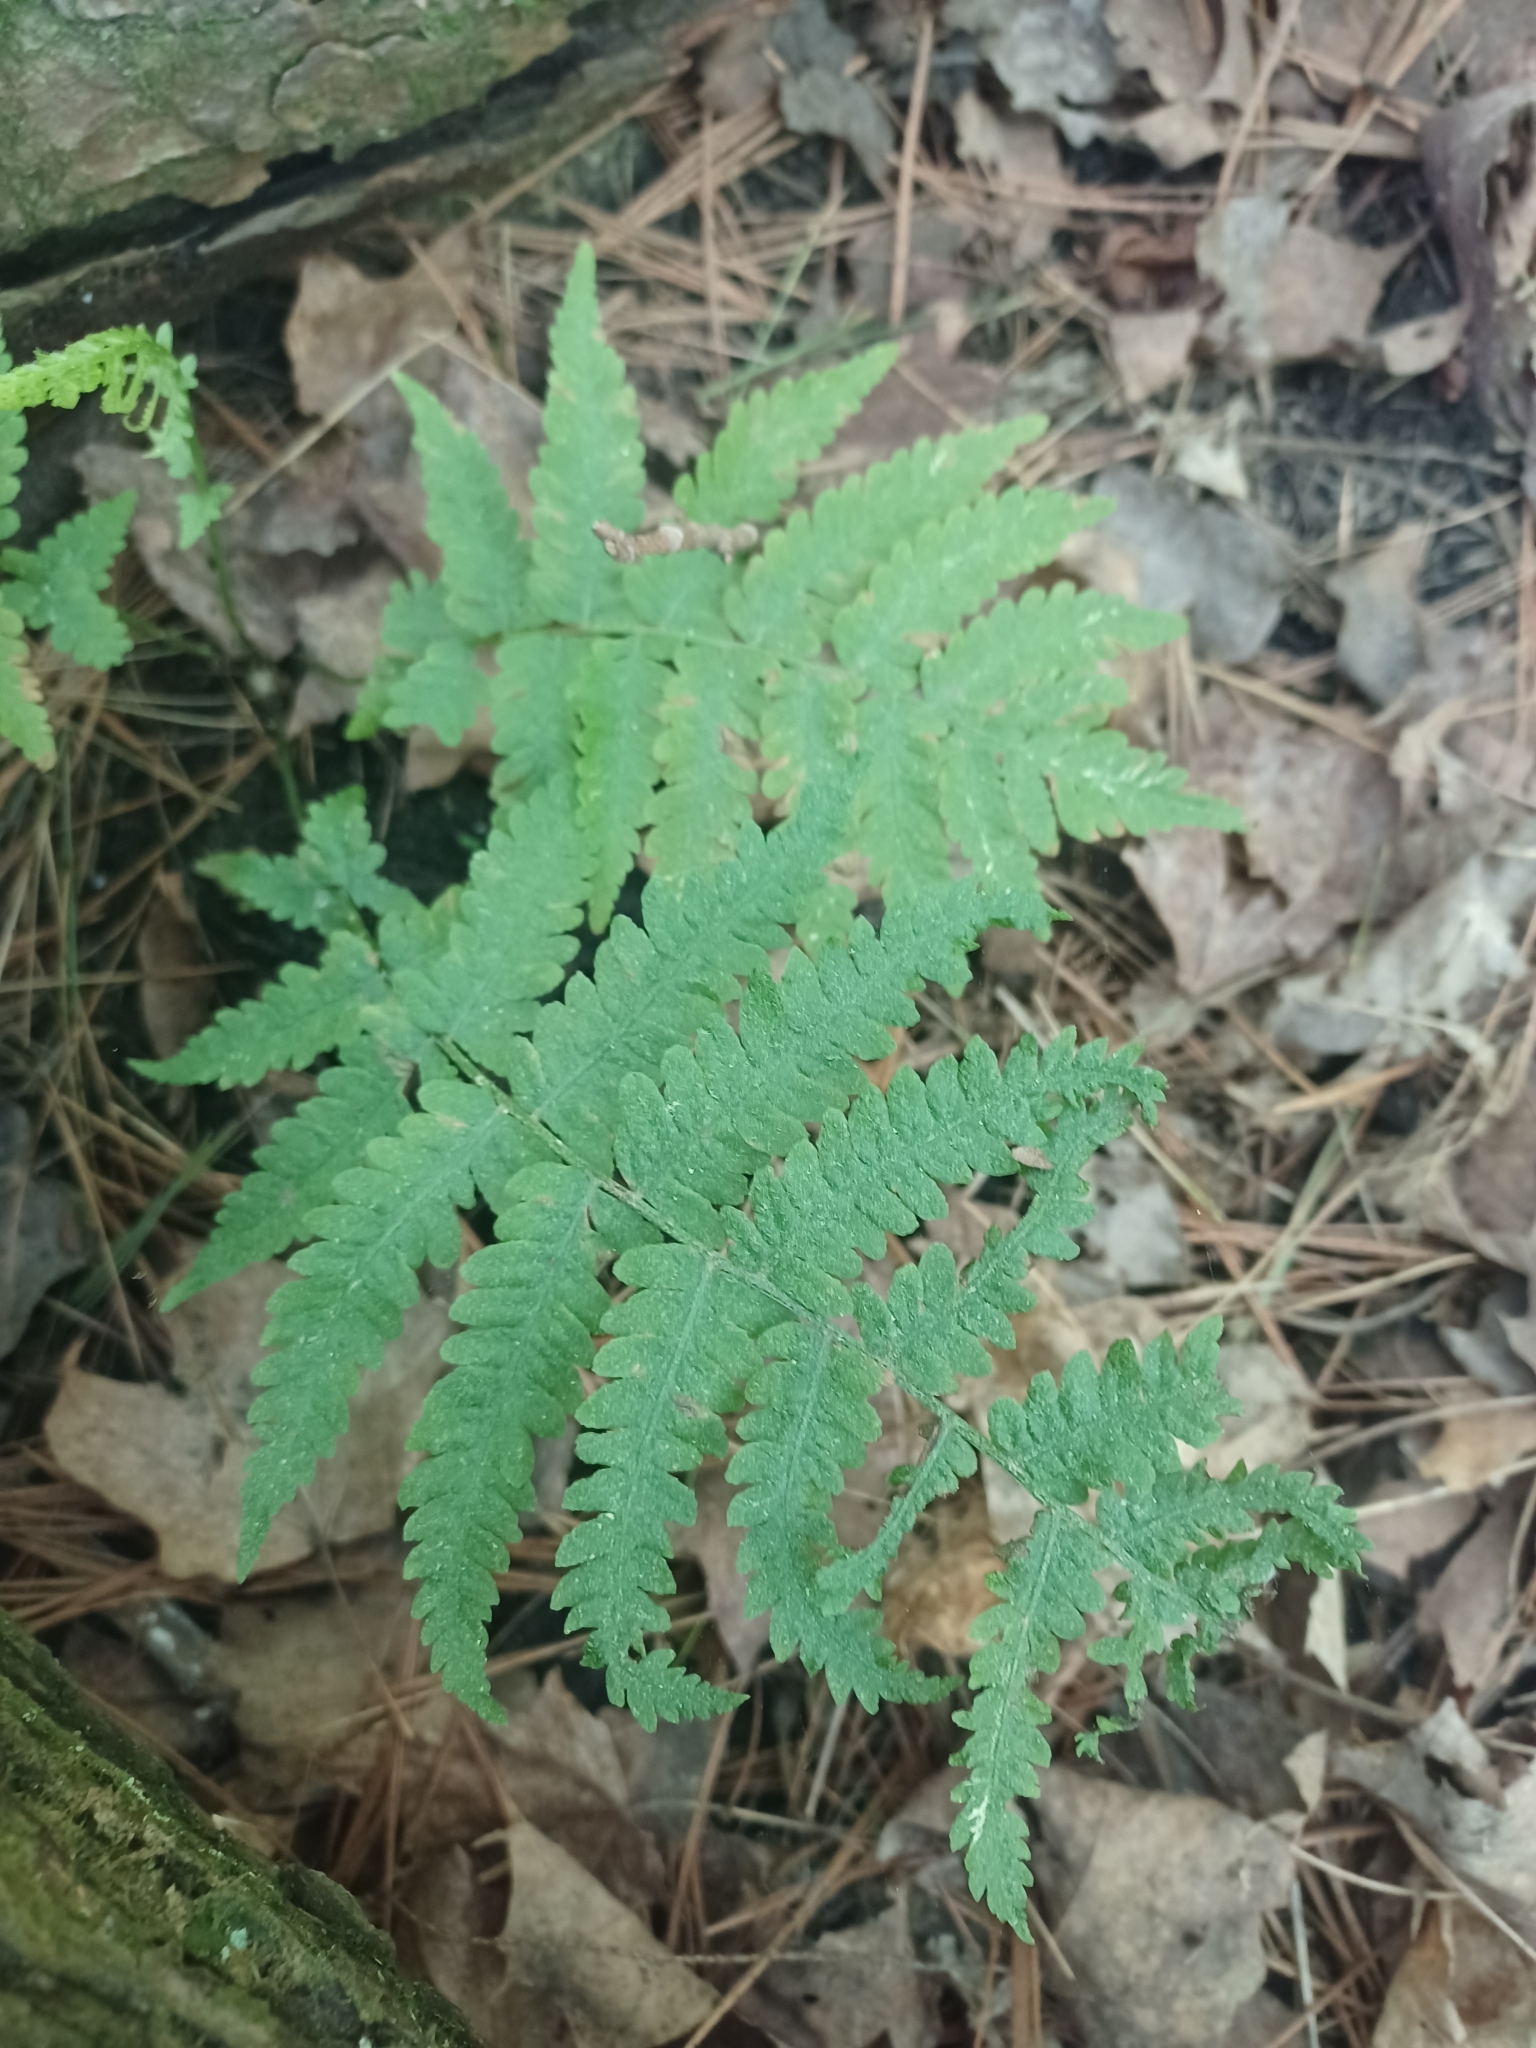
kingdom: Plantae
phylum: Tracheophyta
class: Polypodiopsida
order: Polypodiales
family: Thelypteridaceae
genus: Amauropelta
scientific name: Amauropelta noveboracensis
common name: New york fern
